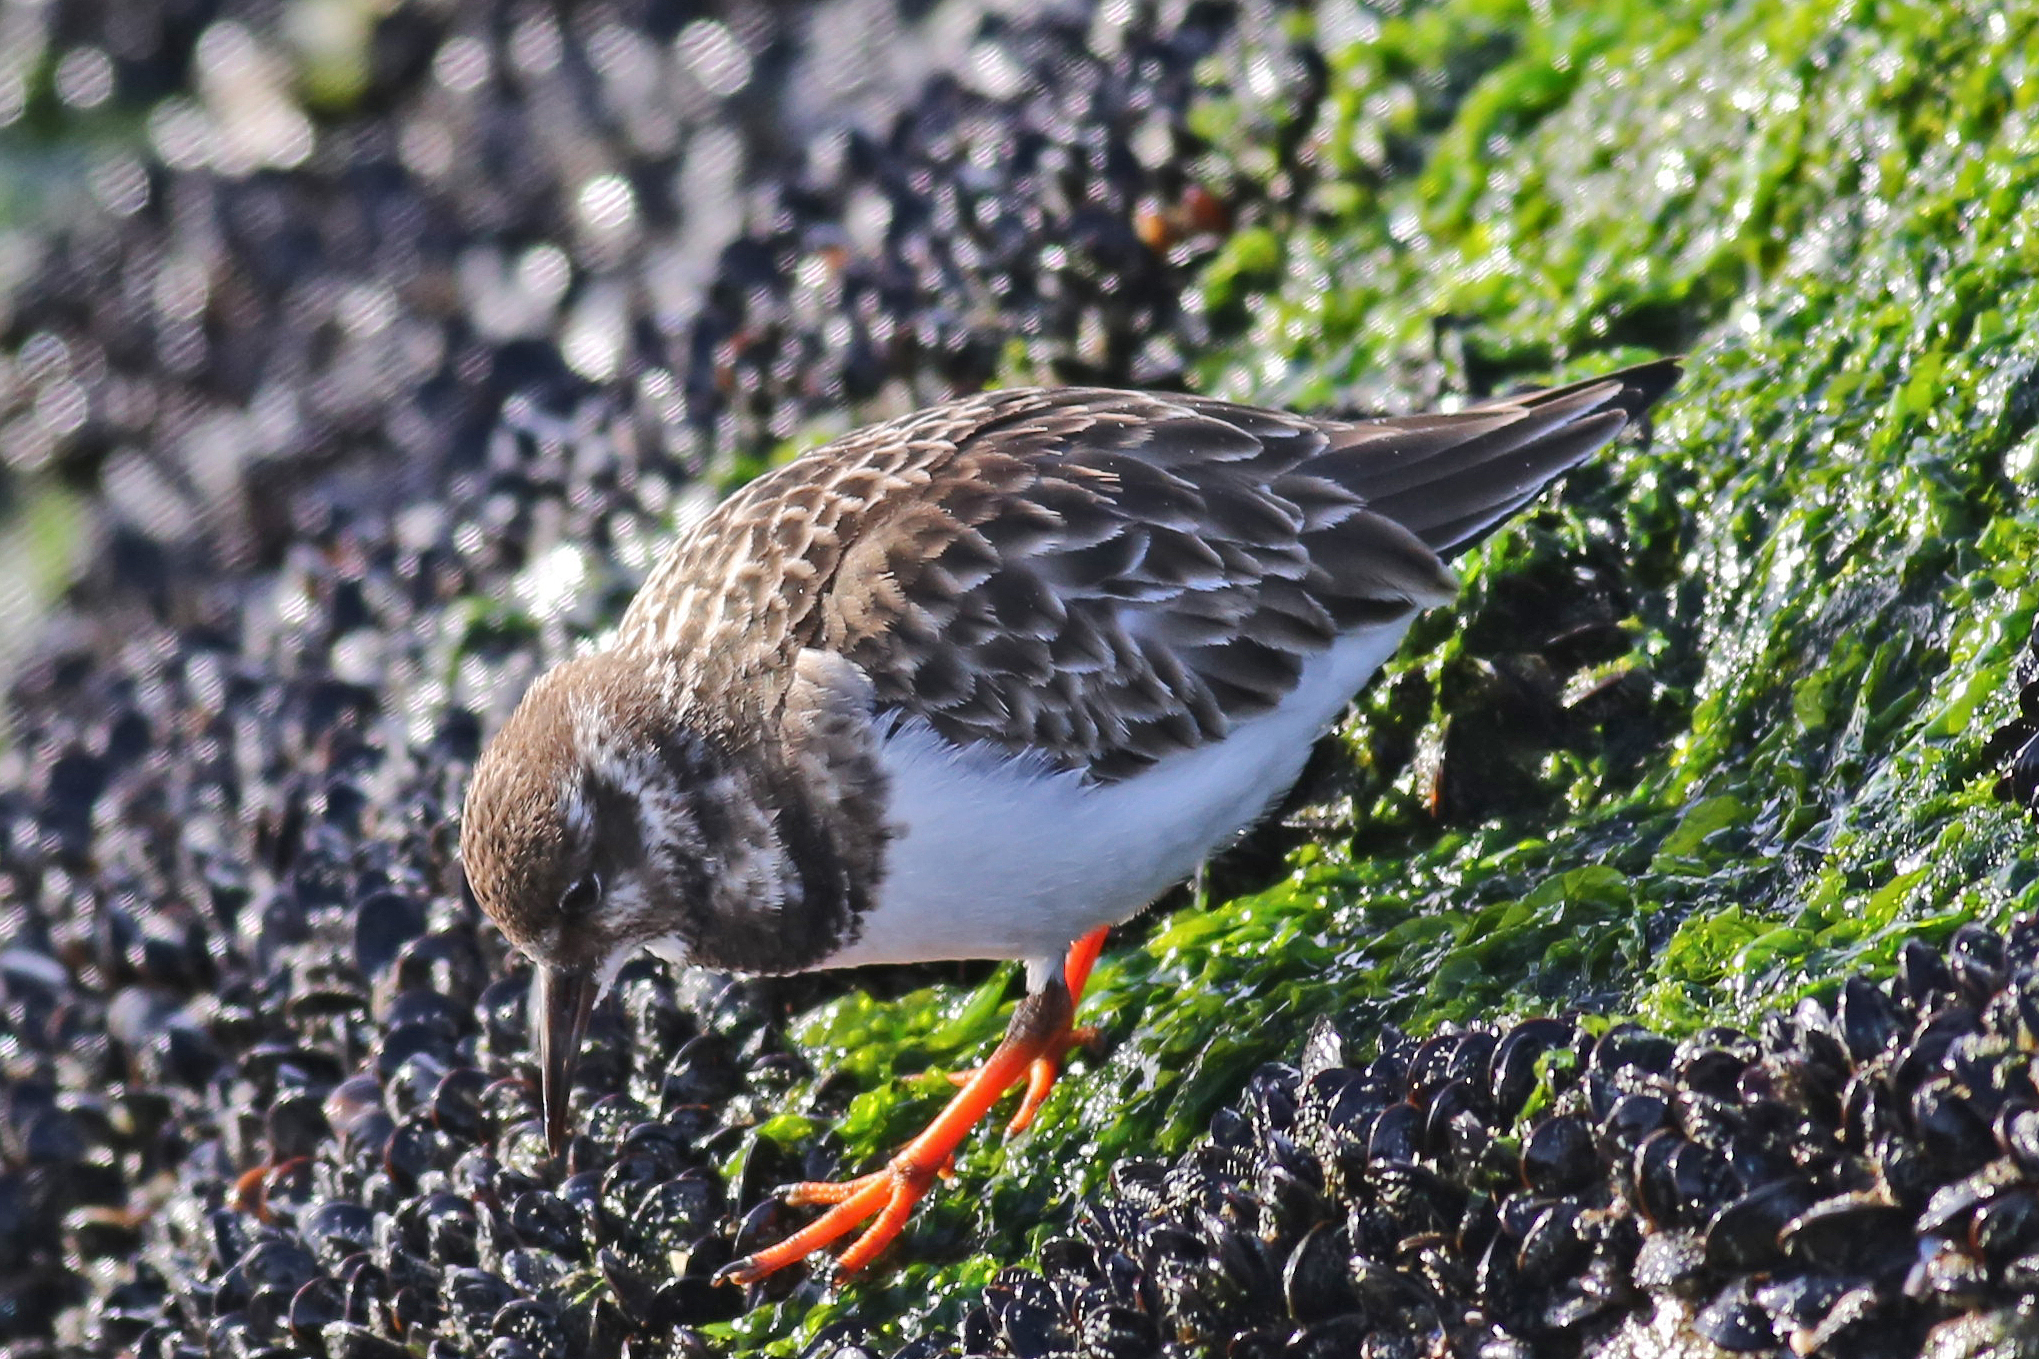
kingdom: Animalia
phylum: Chordata
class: Aves
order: Charadriiformes
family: Scolopacidae
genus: Arenaria
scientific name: Arenaria interpres
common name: Ruddy turnstone
